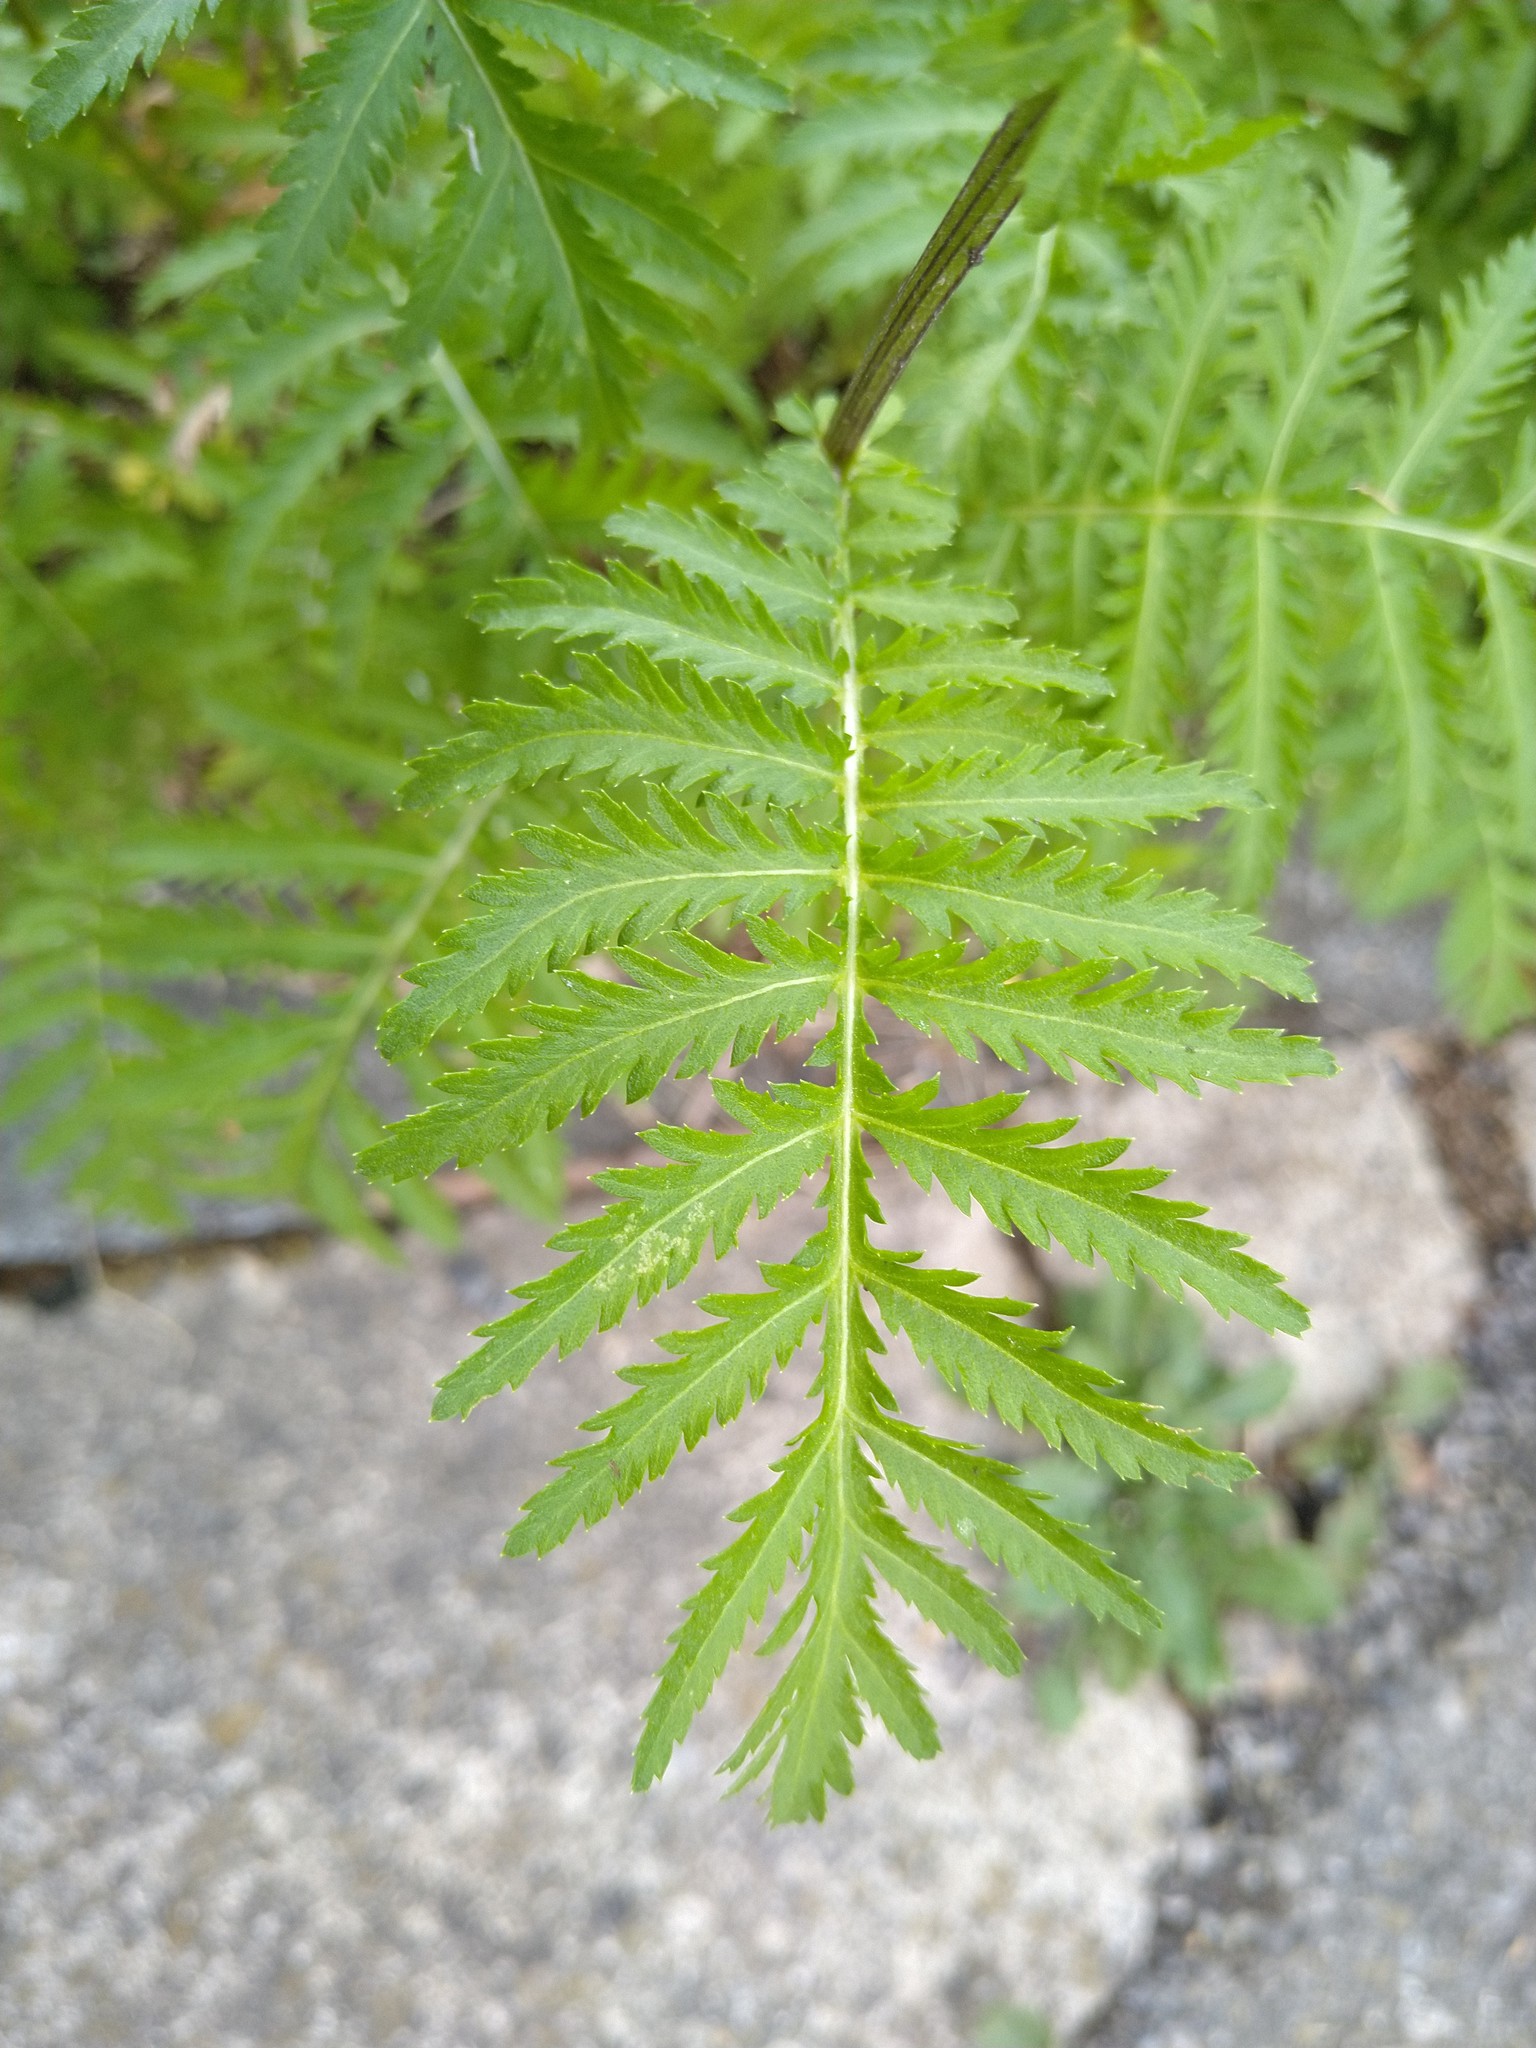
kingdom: Plantae
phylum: Tracheophyta
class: Magnoliopsida
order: Asterales
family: Asteraceae
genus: Tanacetum
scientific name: Tanacetum vulgare
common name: Common tansy
